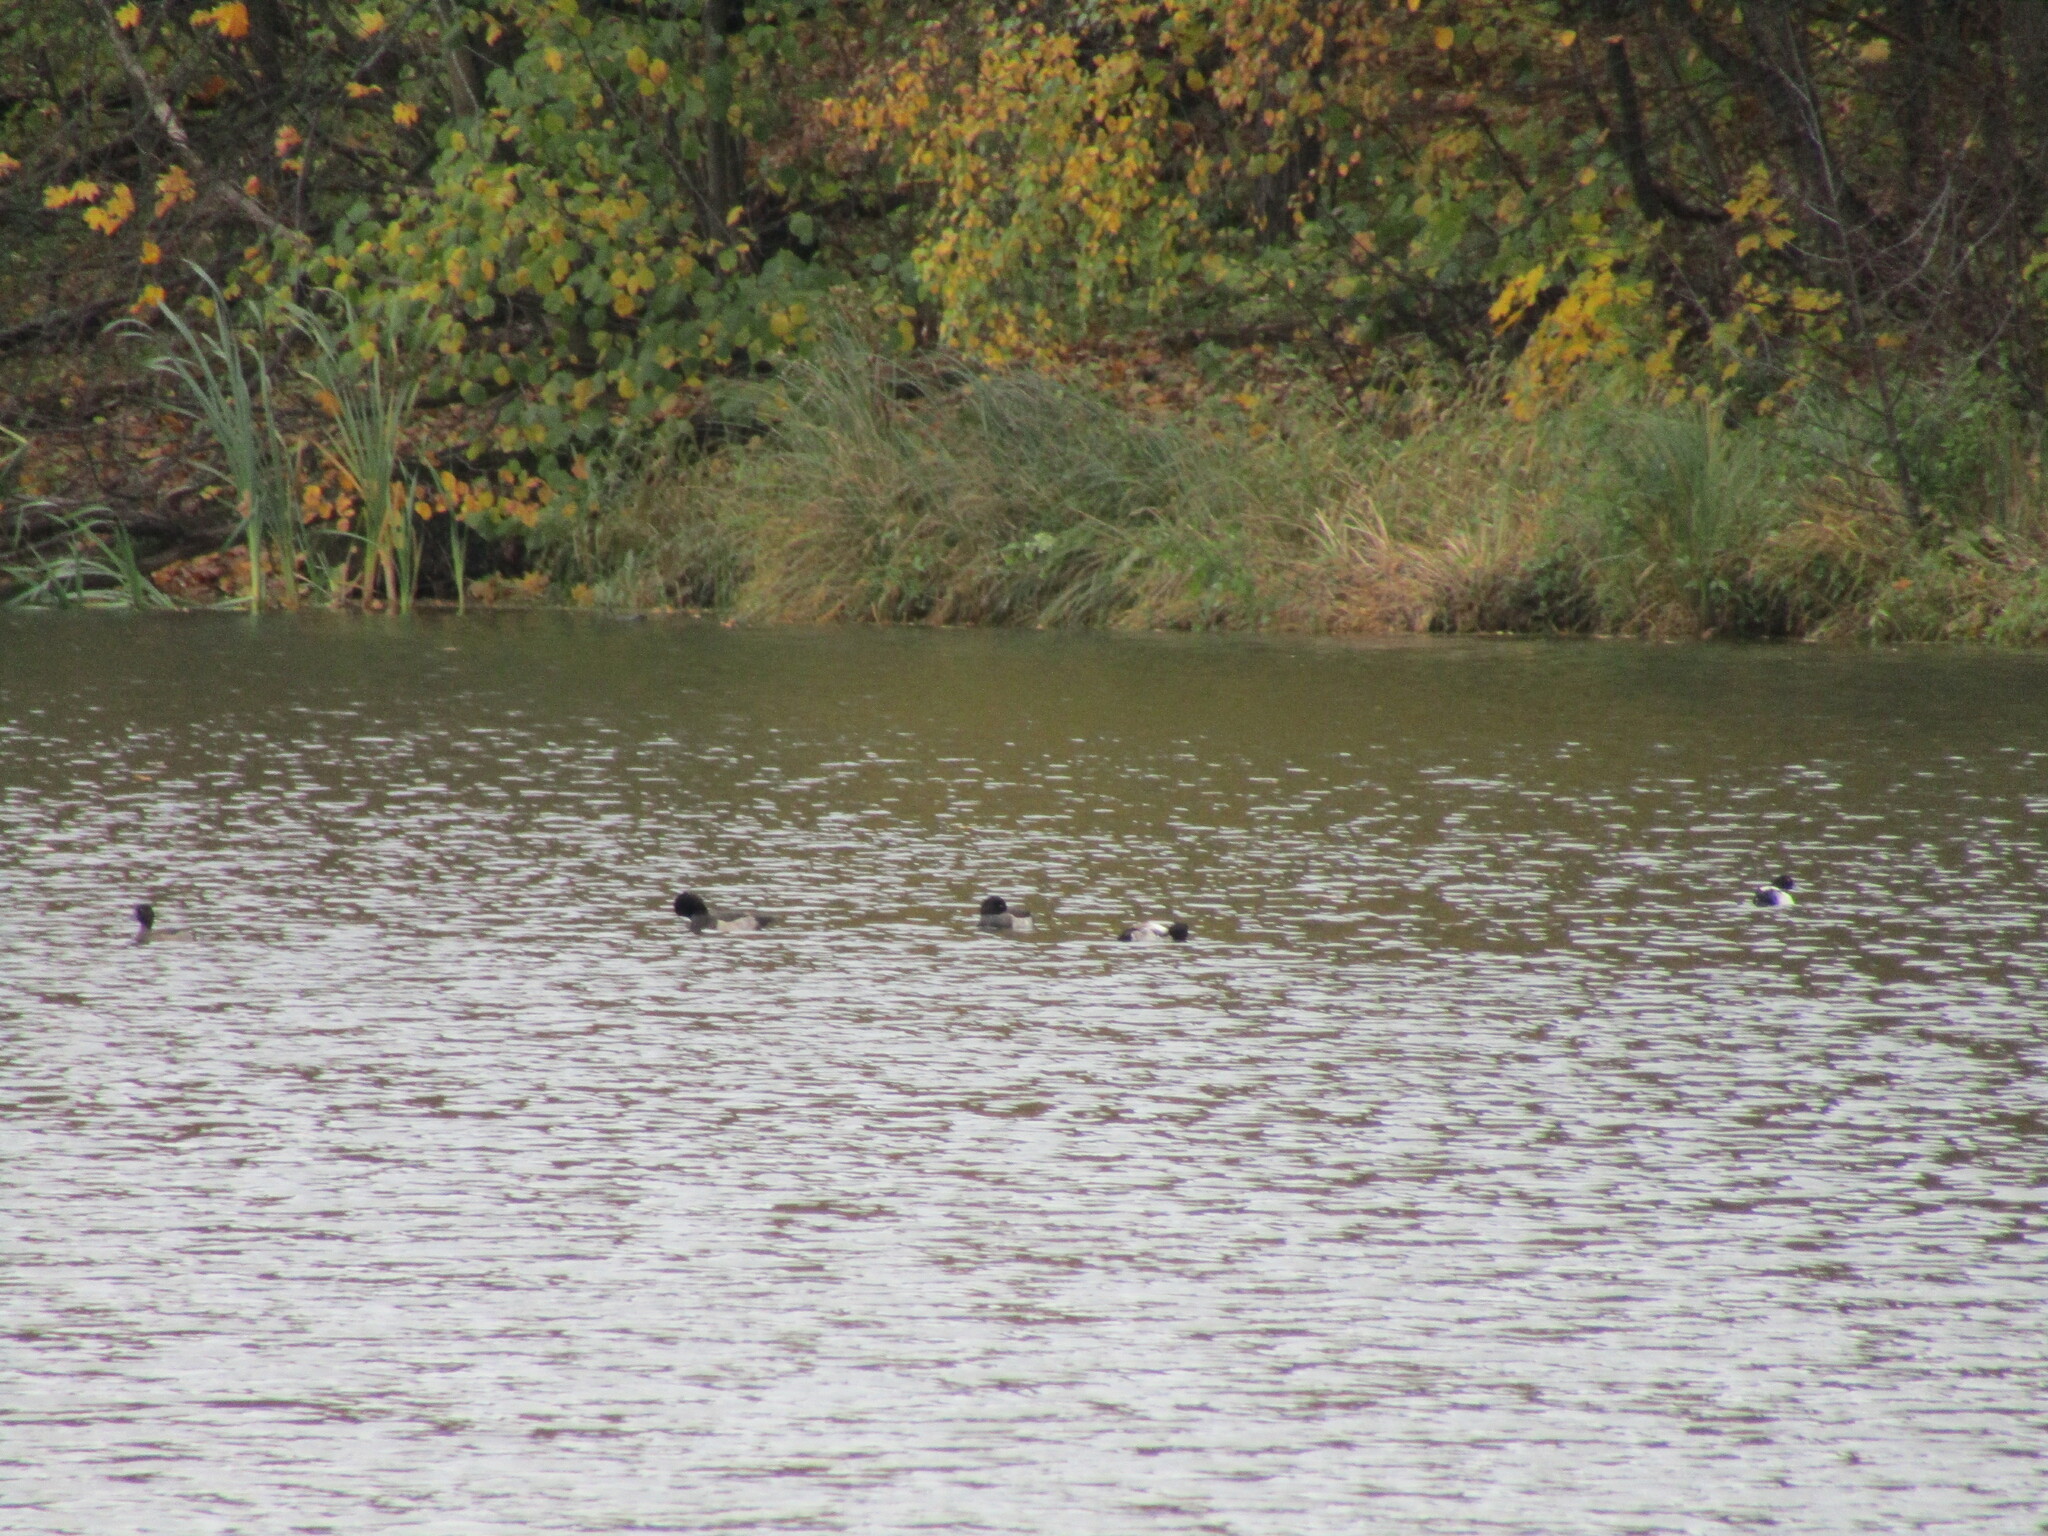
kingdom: Animalia
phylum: Chordata
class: Aves
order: Anseriformes
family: Anatidae
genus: Aythya
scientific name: Aythya fuligula
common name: Tufted duck
